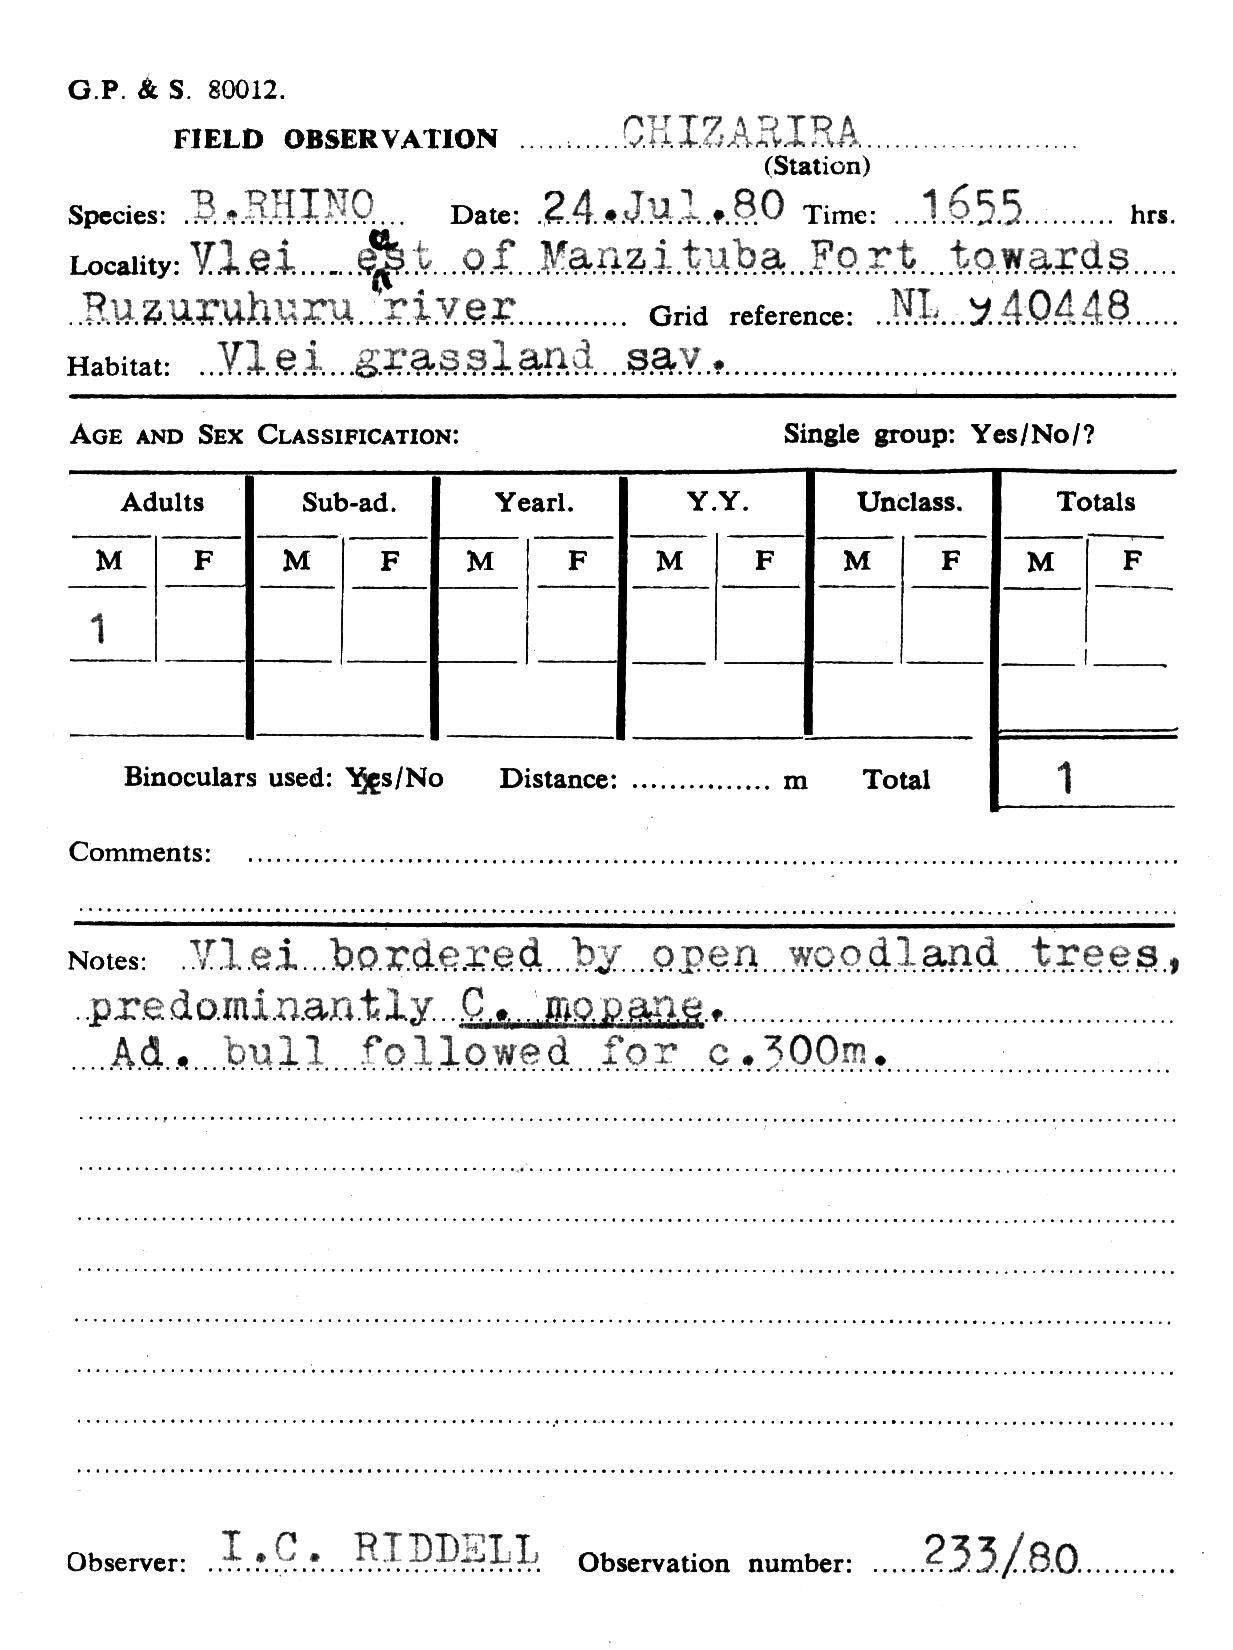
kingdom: Animalia
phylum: Chordata
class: Mammalia
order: Perissodactyla
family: Rhinocerotidae
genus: Diceros
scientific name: Diceros bicornis
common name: Black rhinoceros
